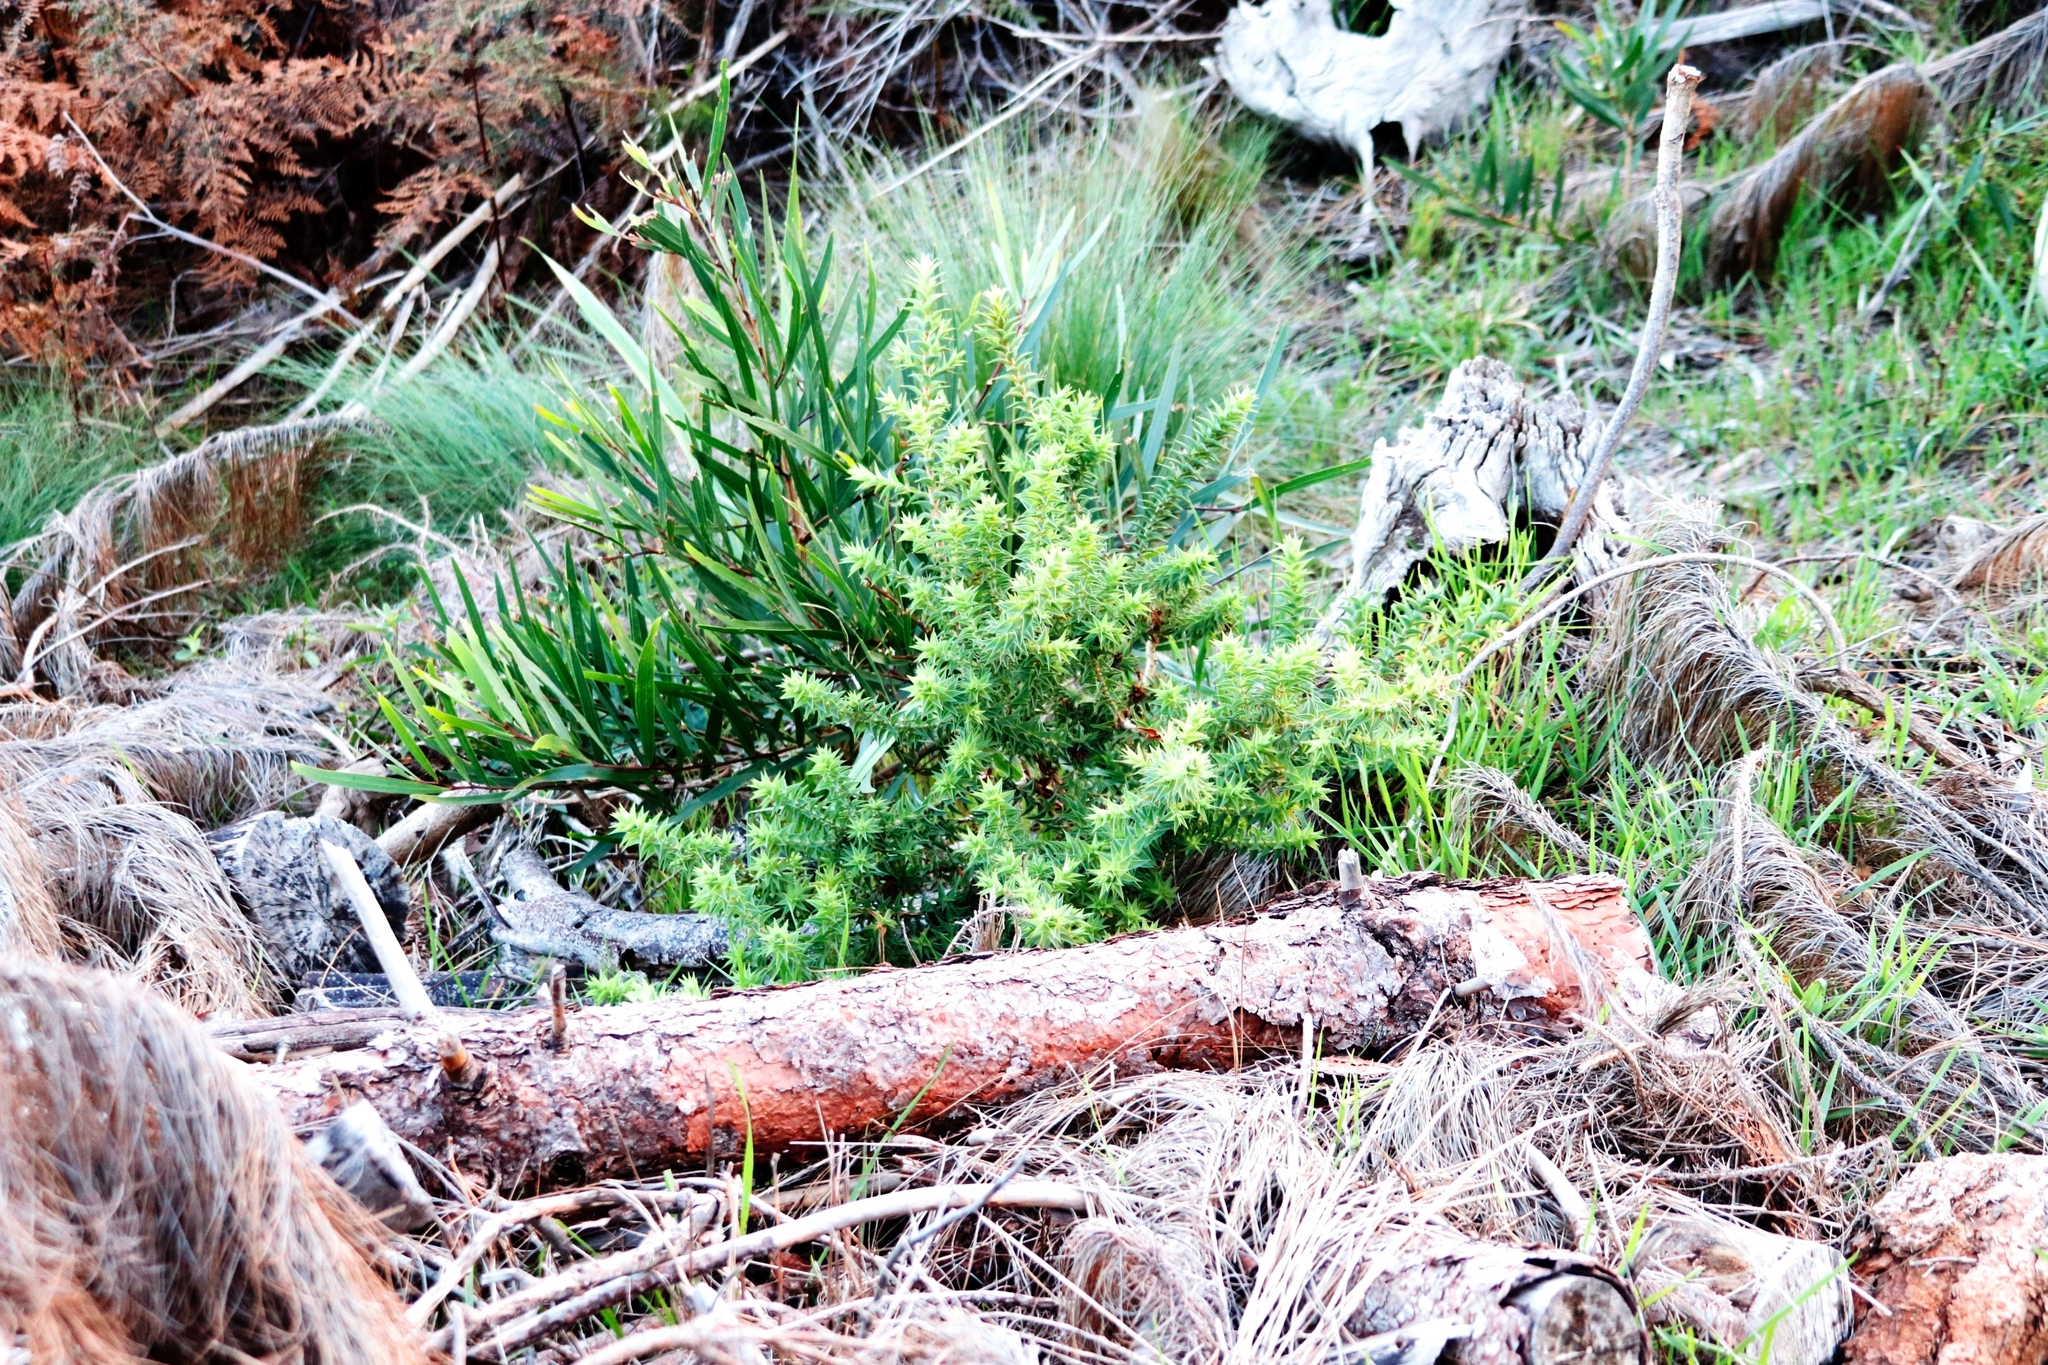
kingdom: Plantae
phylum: Tracheophyta
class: Magnoliopsida
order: Fabales
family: Fabaceae
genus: Acacia
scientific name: Acacia longifolia
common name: Sydney golden wattle
